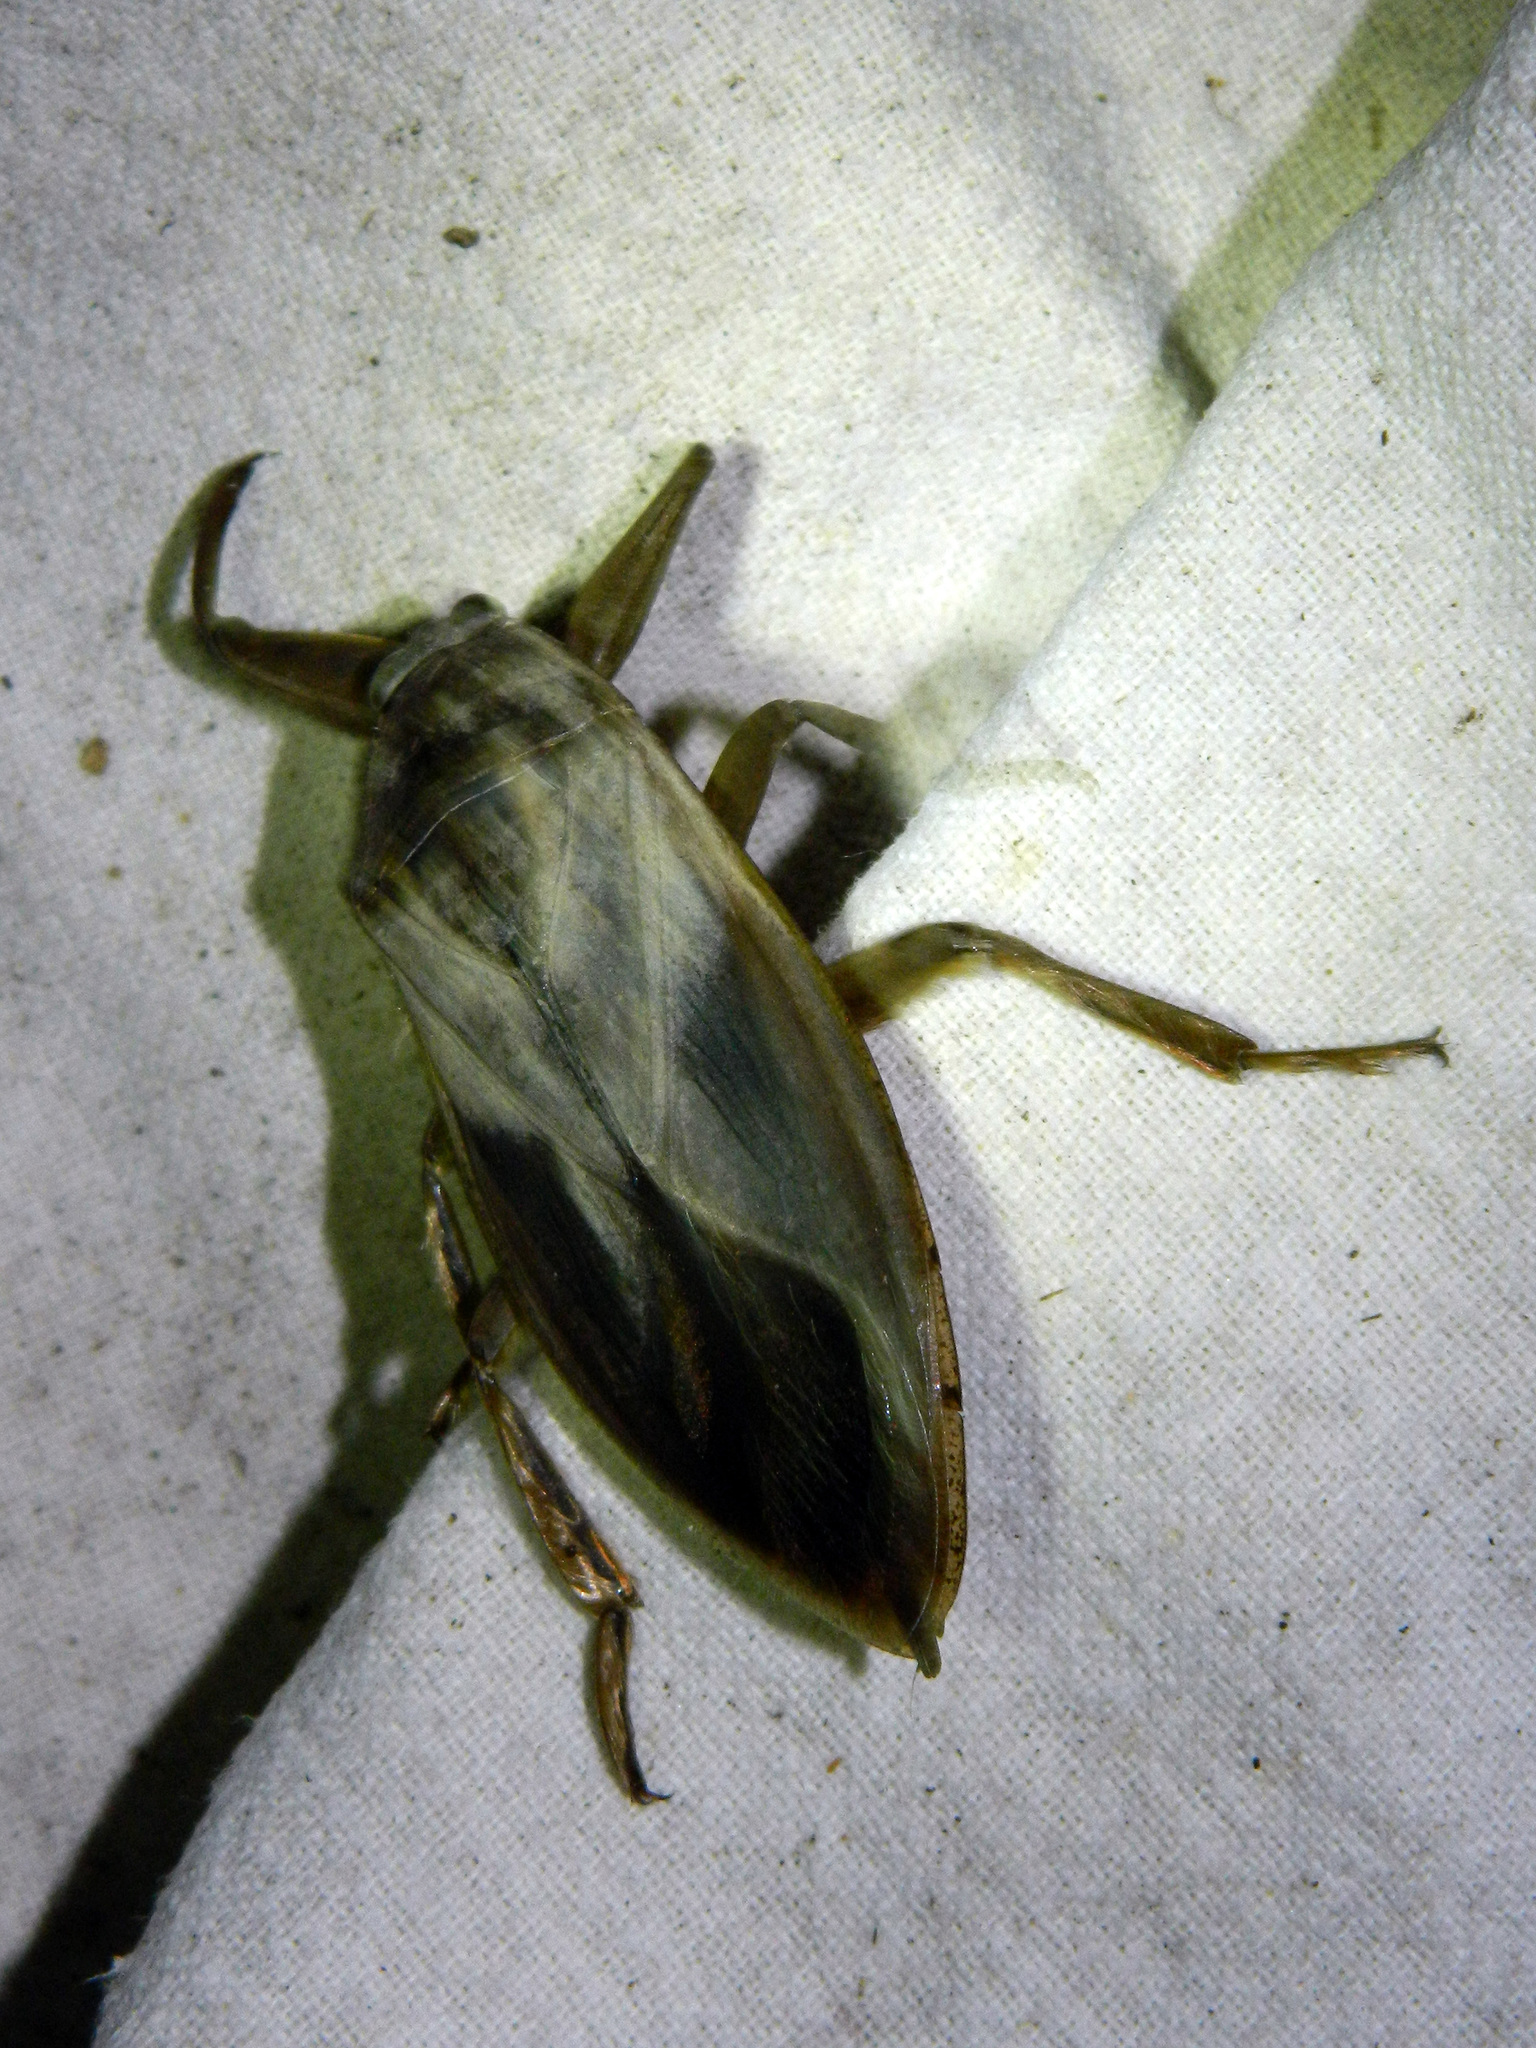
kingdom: Animalia
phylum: Arthropoda
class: Insecta
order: Hemiptera
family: Belostomatidae
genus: Lethocerus
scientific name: Lethocerus americanus
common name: Giant water bug
